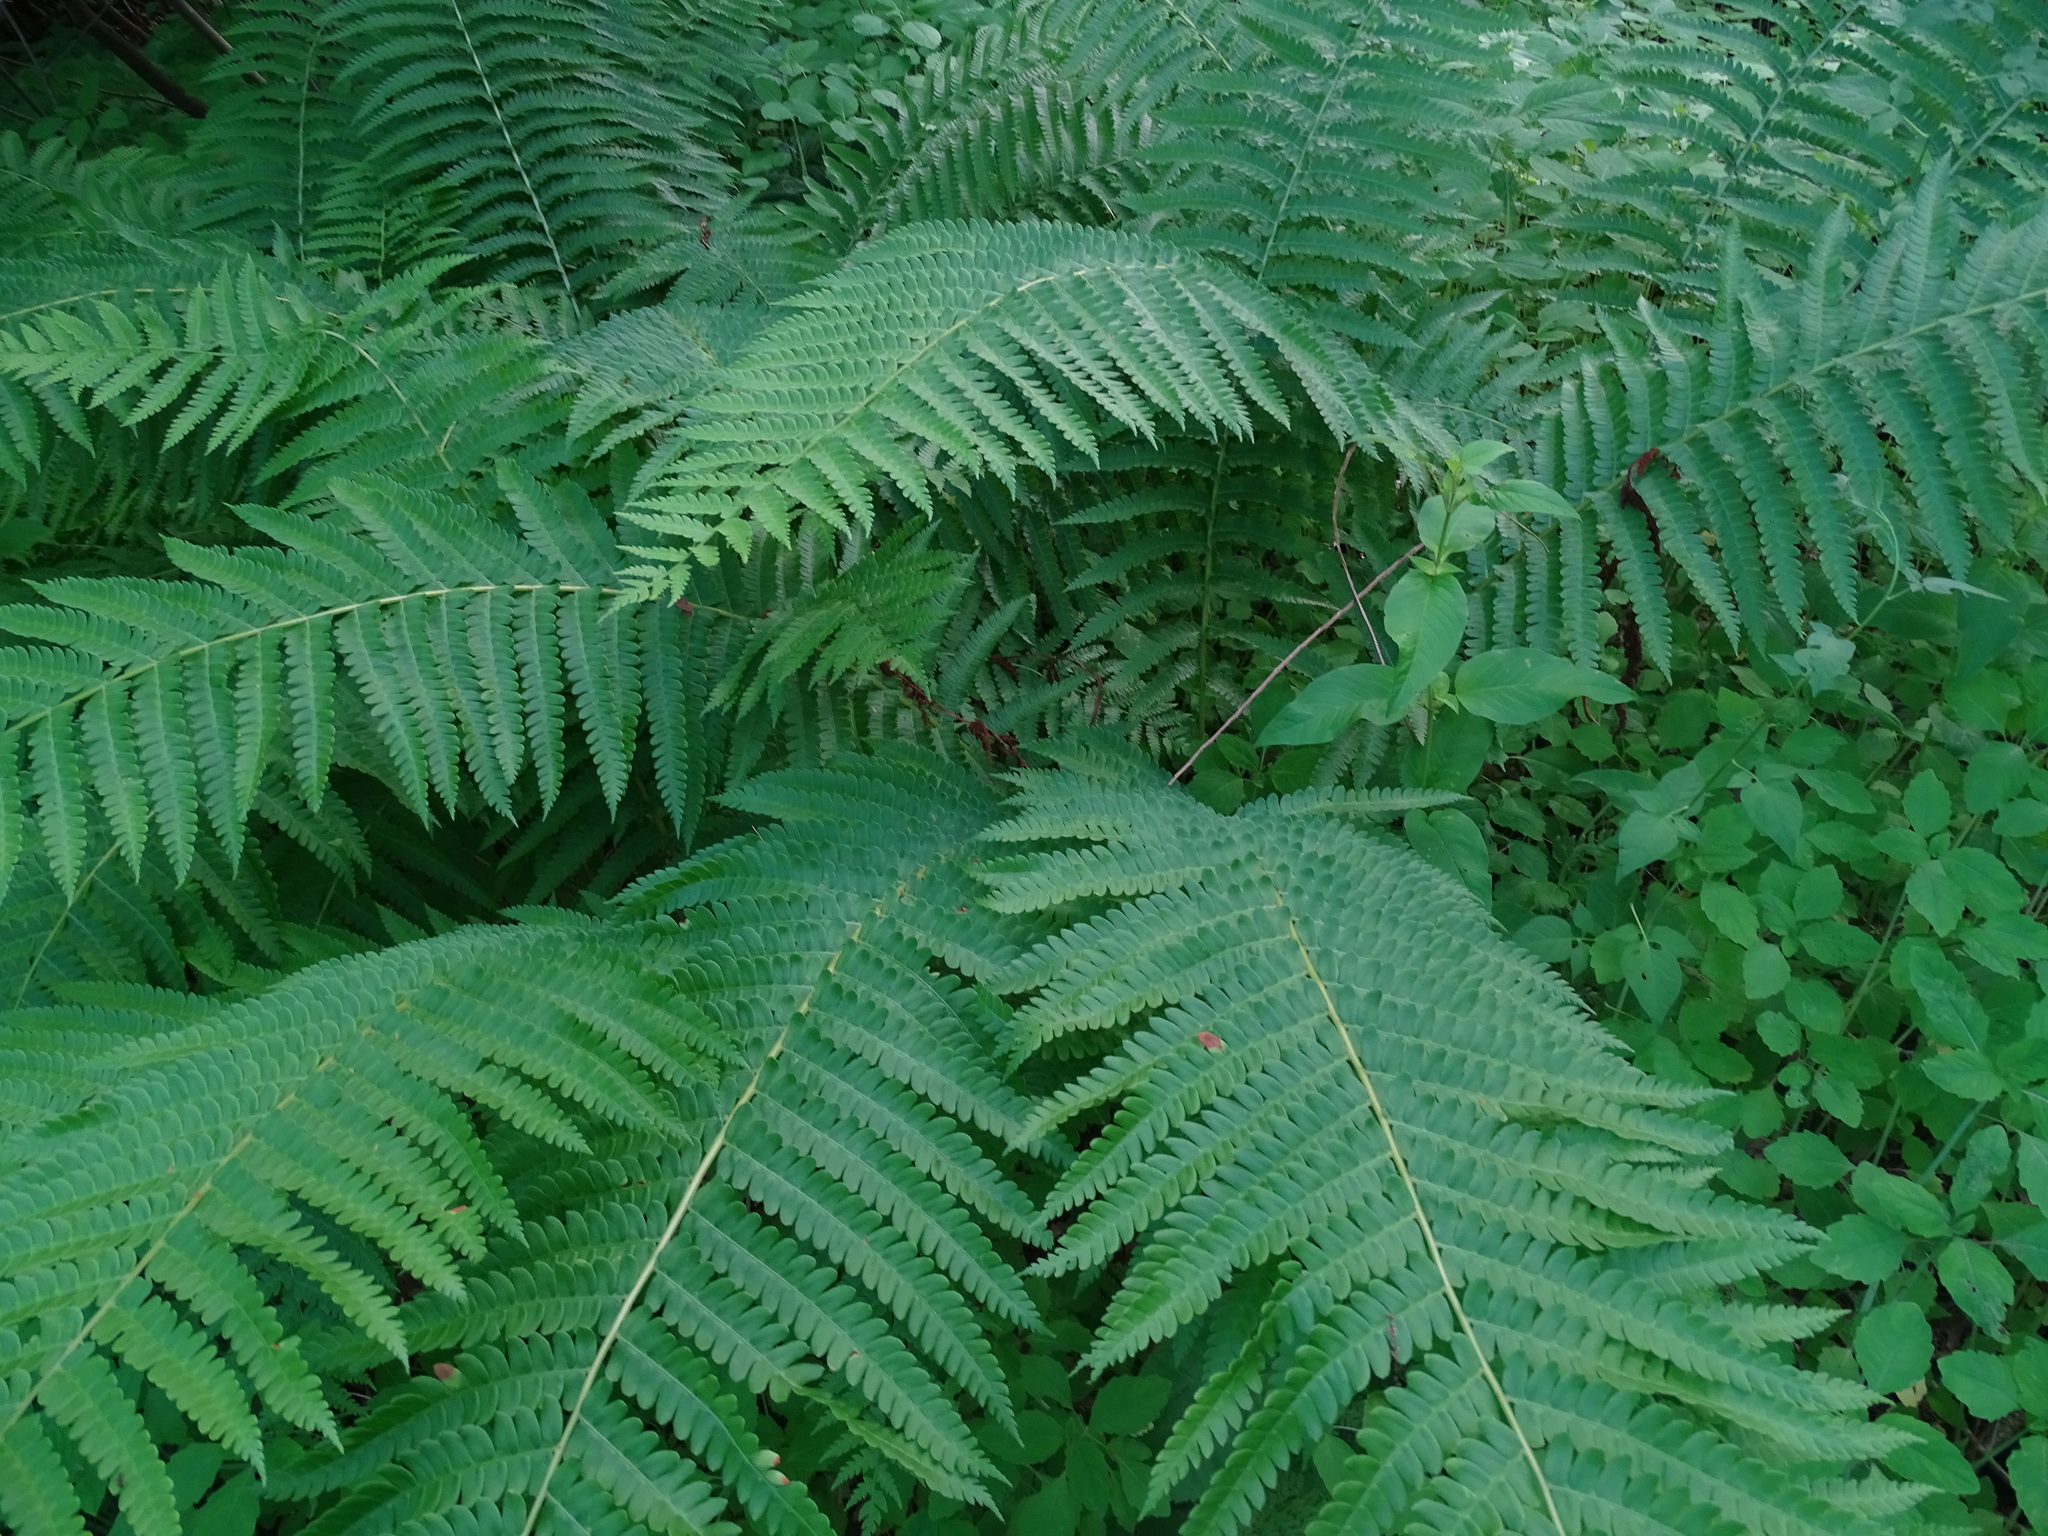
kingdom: Plantae
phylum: Tracheophyta
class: Polypodiopsida
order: Osmundales
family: Osmundaceae
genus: Osmundastrum
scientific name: Osmundastrum cinnamomeum
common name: Cinnamon fern
